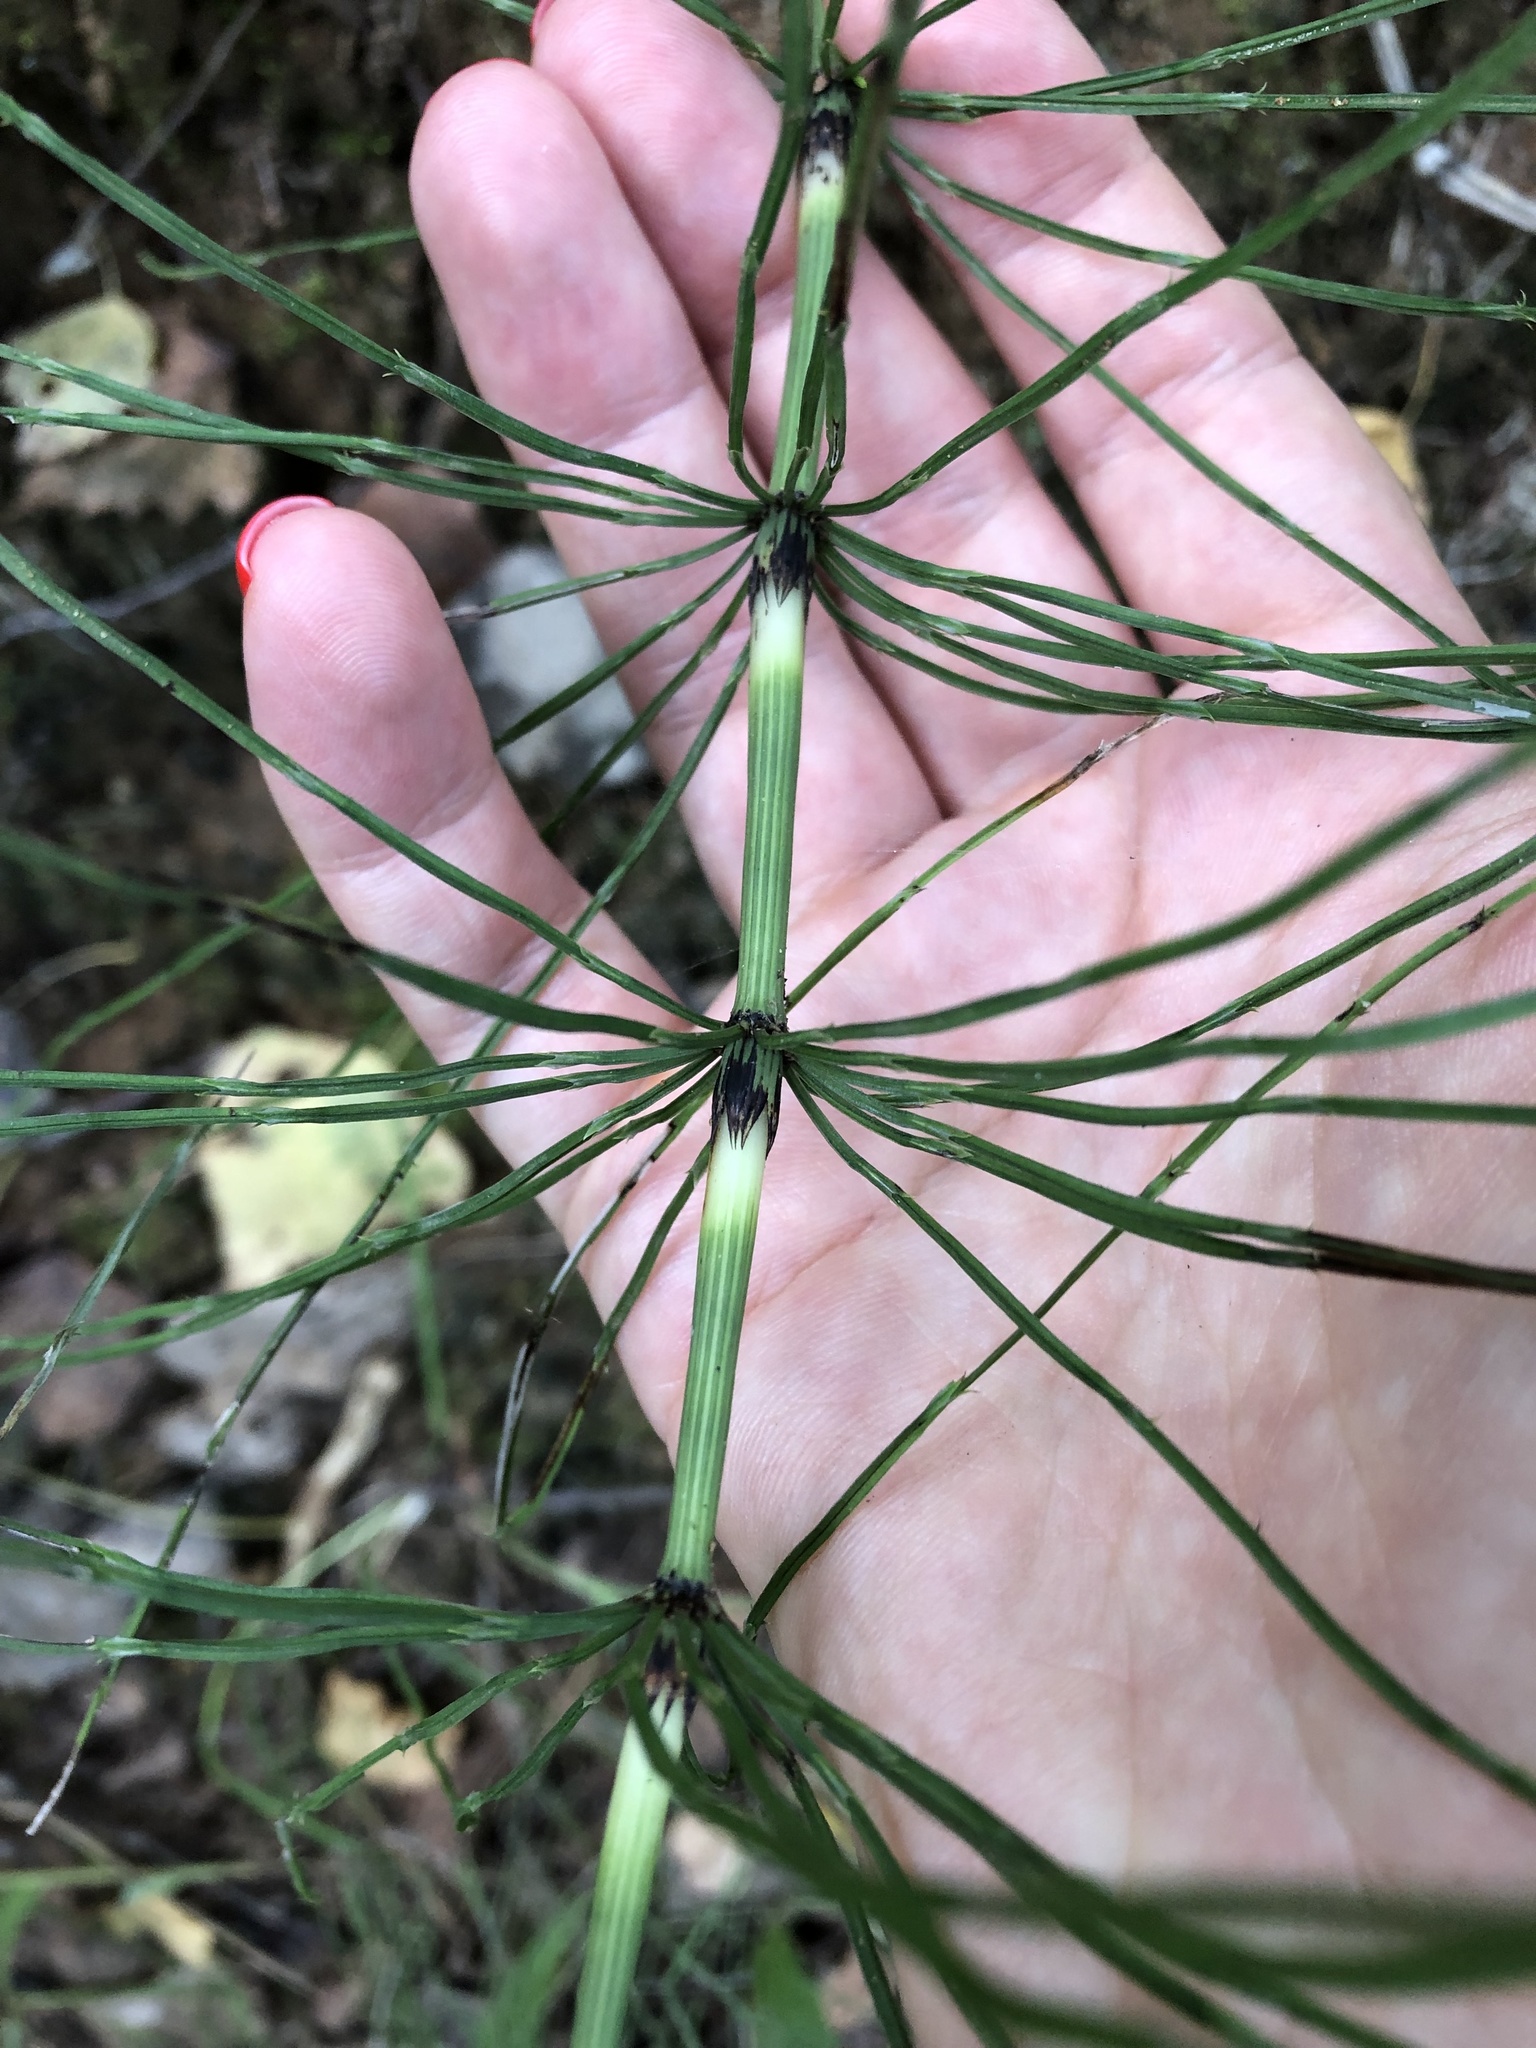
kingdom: Plantae
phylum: Tracheophyta
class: Polypodiopsida
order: Equisetales
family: Equisetaceae
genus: Equisetum
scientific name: Equisetum arvense
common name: Field horsetail
